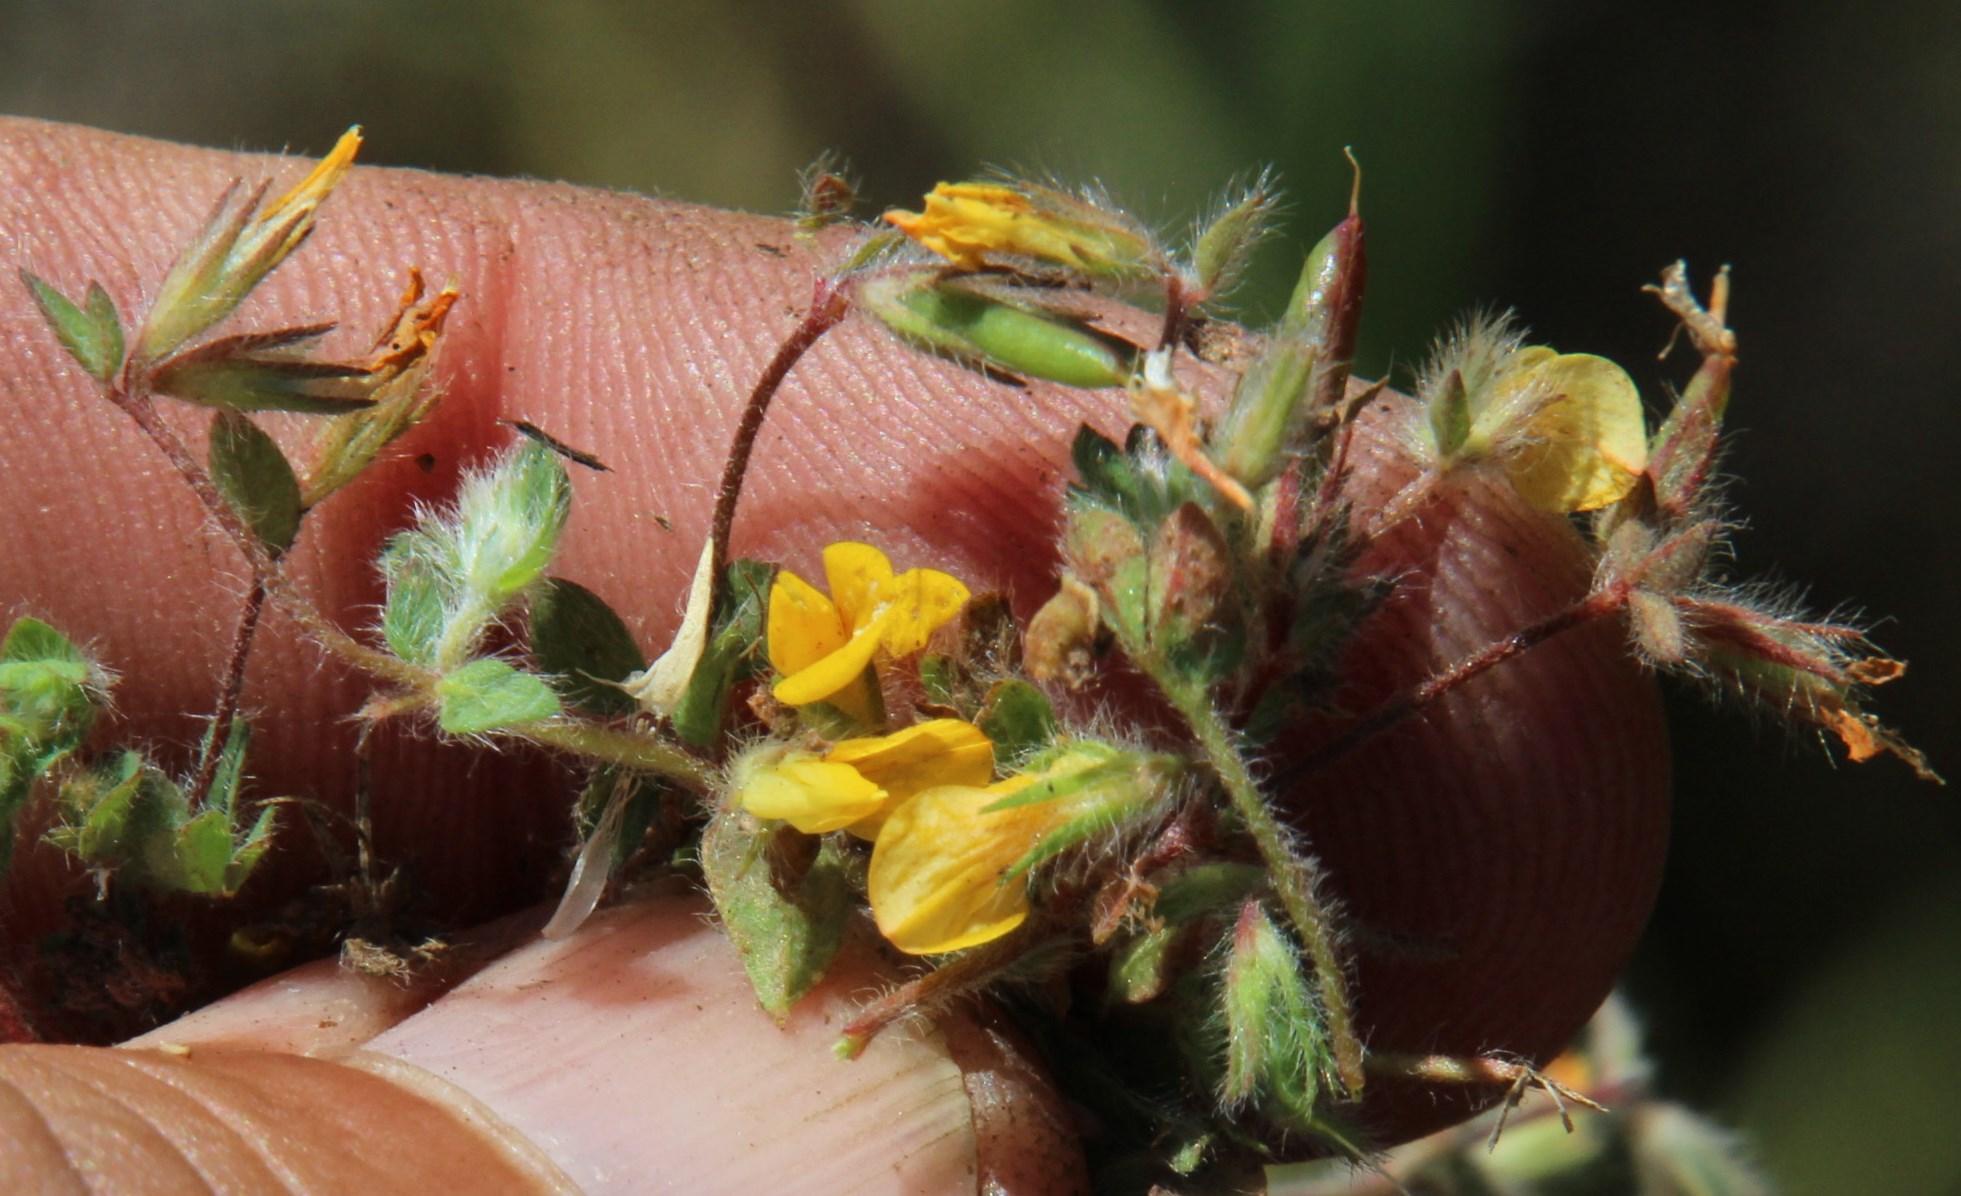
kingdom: Plantae
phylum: Tracheophyta
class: Magnoliopsida
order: Fabales
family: Fabaceae
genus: Lotus
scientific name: Lotus subbiflorus
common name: Hairy bird's-foot trefoil
